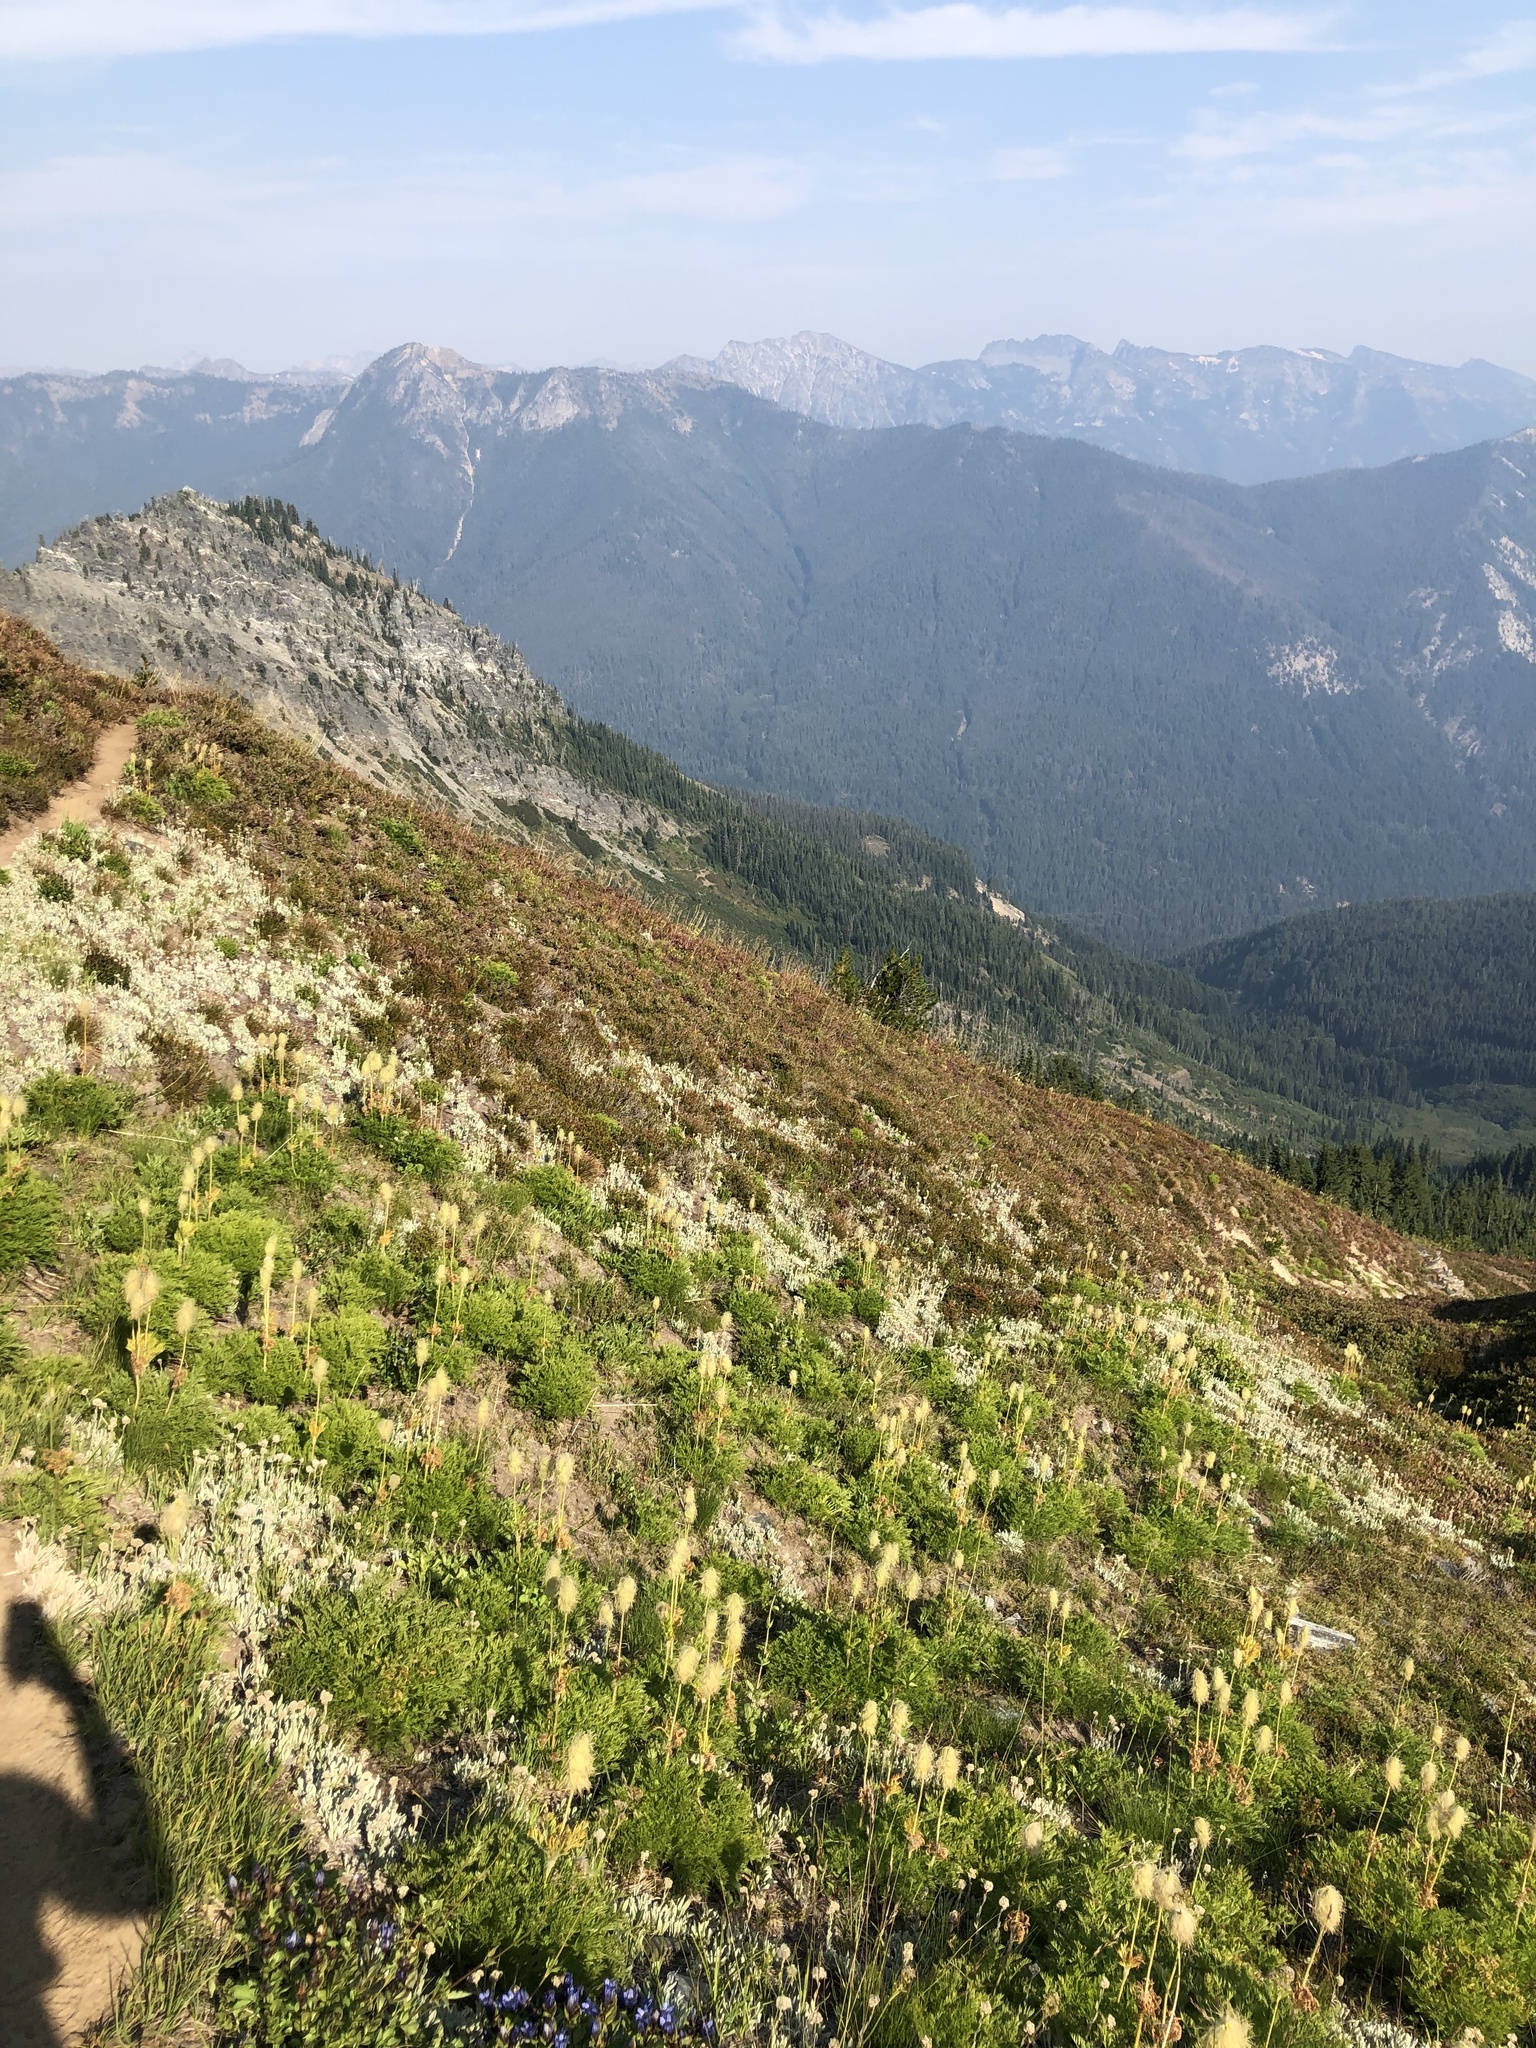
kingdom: Plantae
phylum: Tracheophyta
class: Magnoliopsida
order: Ranunculales
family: Ranunculaceae
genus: Pulsatilla
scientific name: Pulsatilla occidentalis
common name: Mountain pasqueflower
